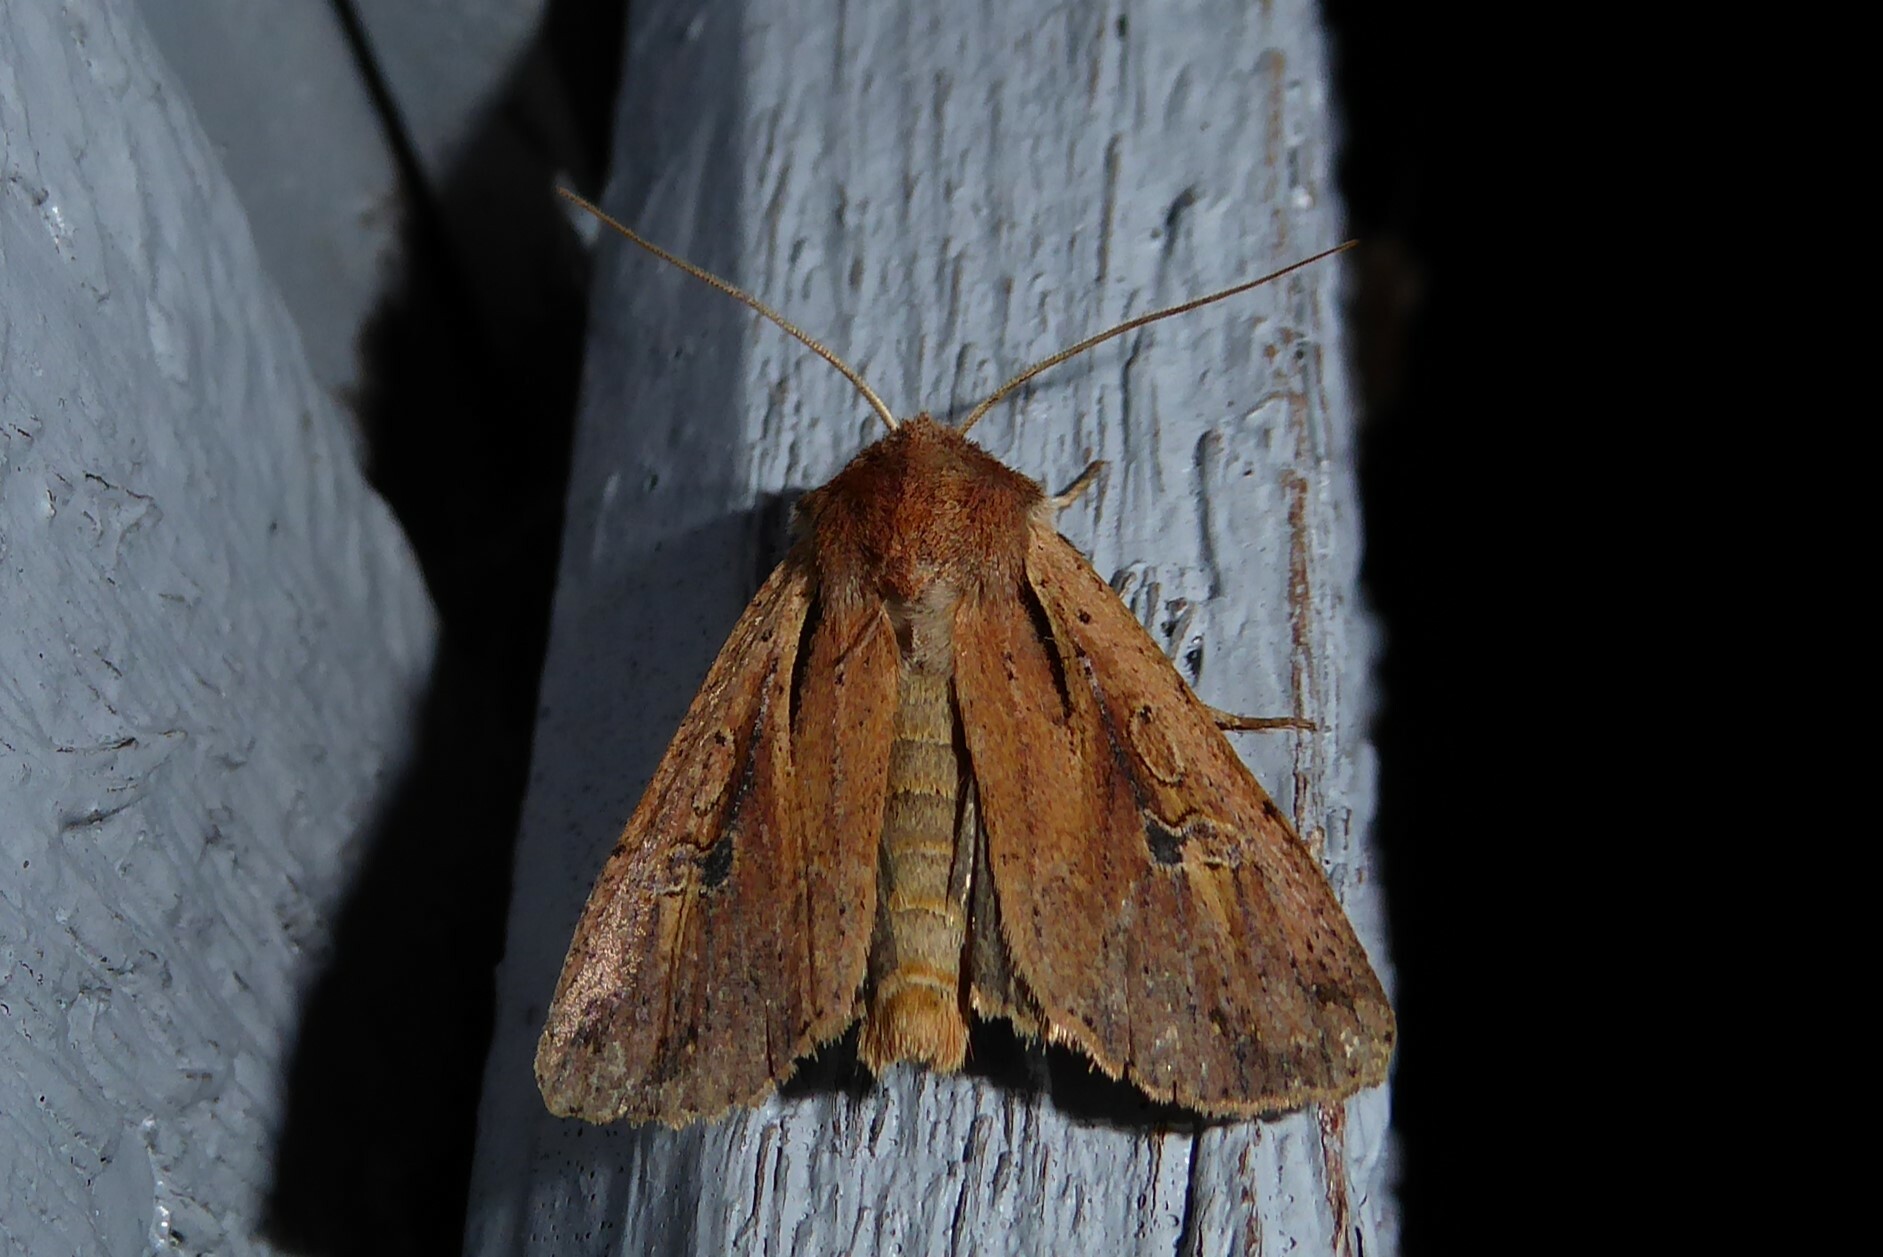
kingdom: Animalia
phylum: Arthropoda
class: Insecta
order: Lepidoptera
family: Noctuidae
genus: Ichneutica
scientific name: Ichneutica atristriga
